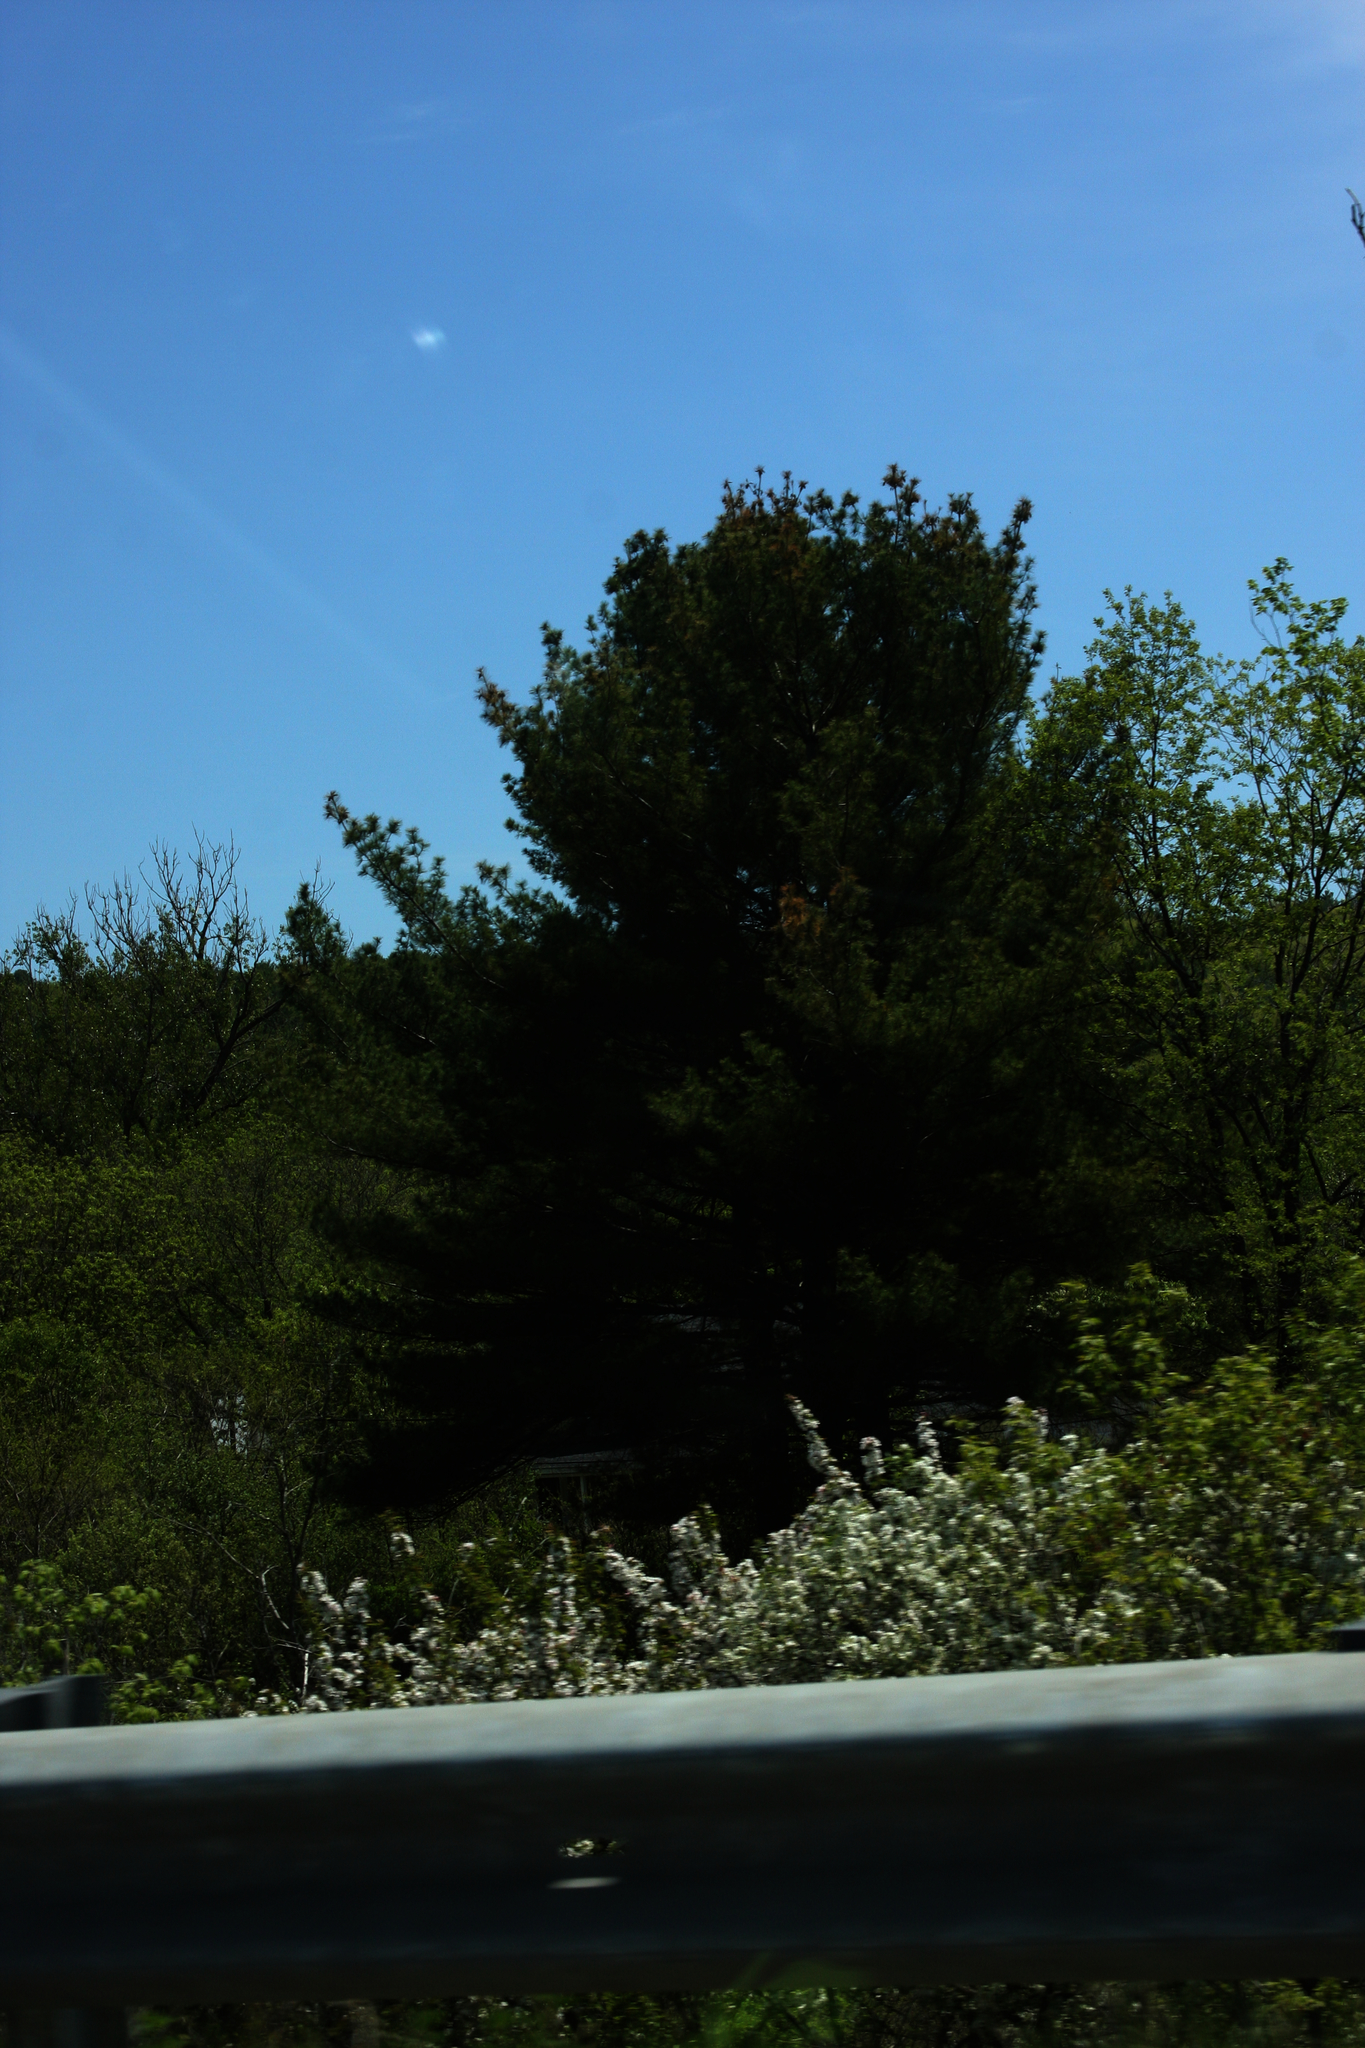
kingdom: Plantae
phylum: Tracheophyta
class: Pinopsida
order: Pinales
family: Pinaceae
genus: Pinus
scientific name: Pinus strobus
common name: Weymouth pine
